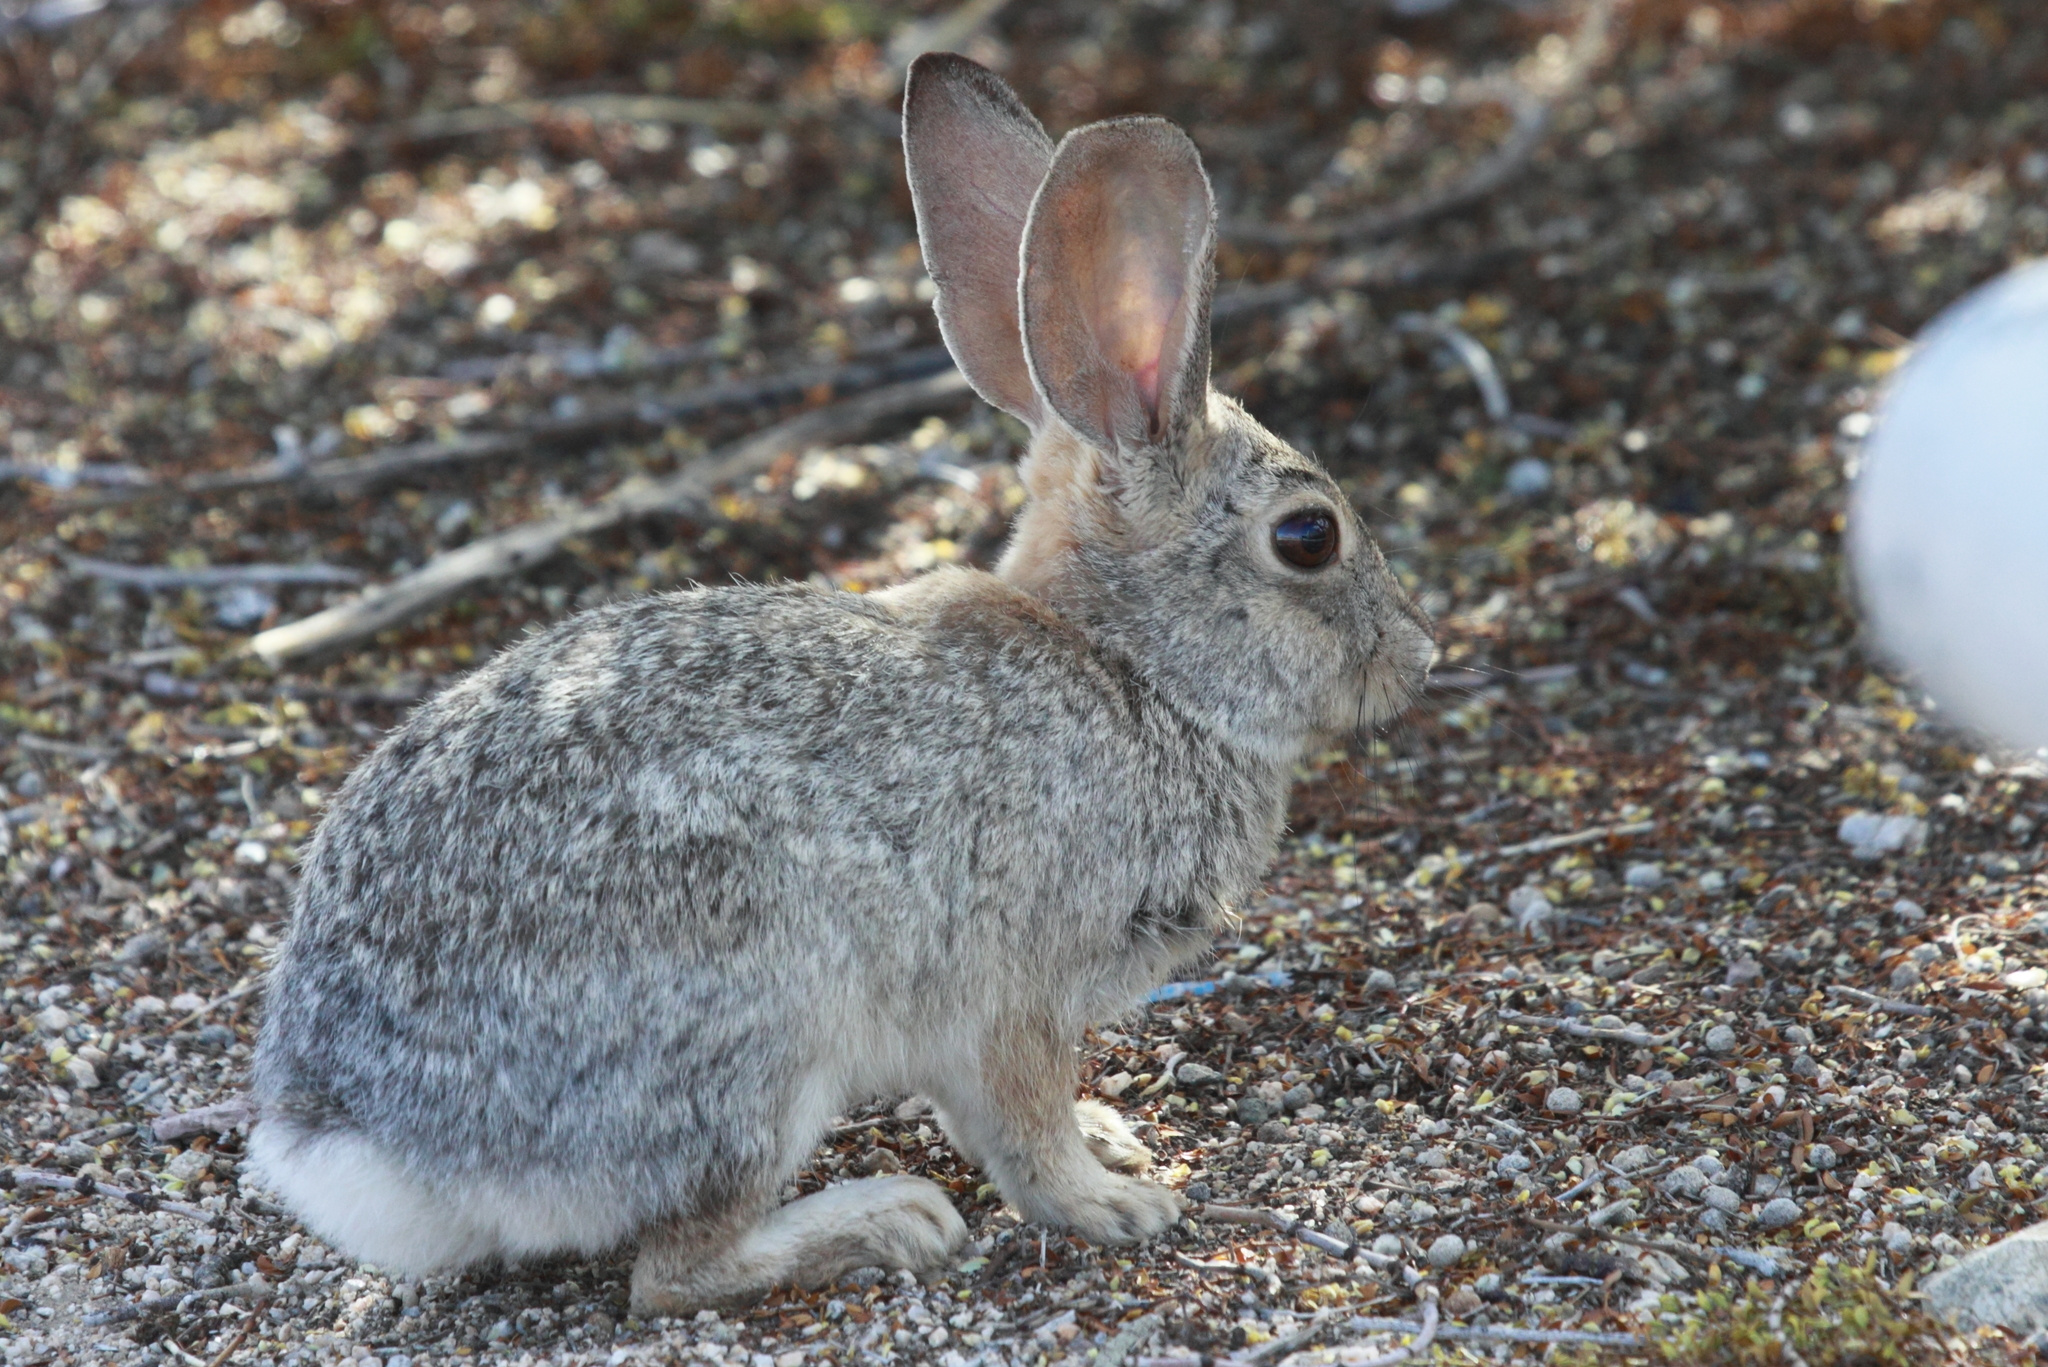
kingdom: Animalia
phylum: Chordata
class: Mammalia
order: Lagomorpha
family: Leporidae
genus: Sylvilagus
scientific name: Sylvilagus audubonii
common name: Desert cottontail
